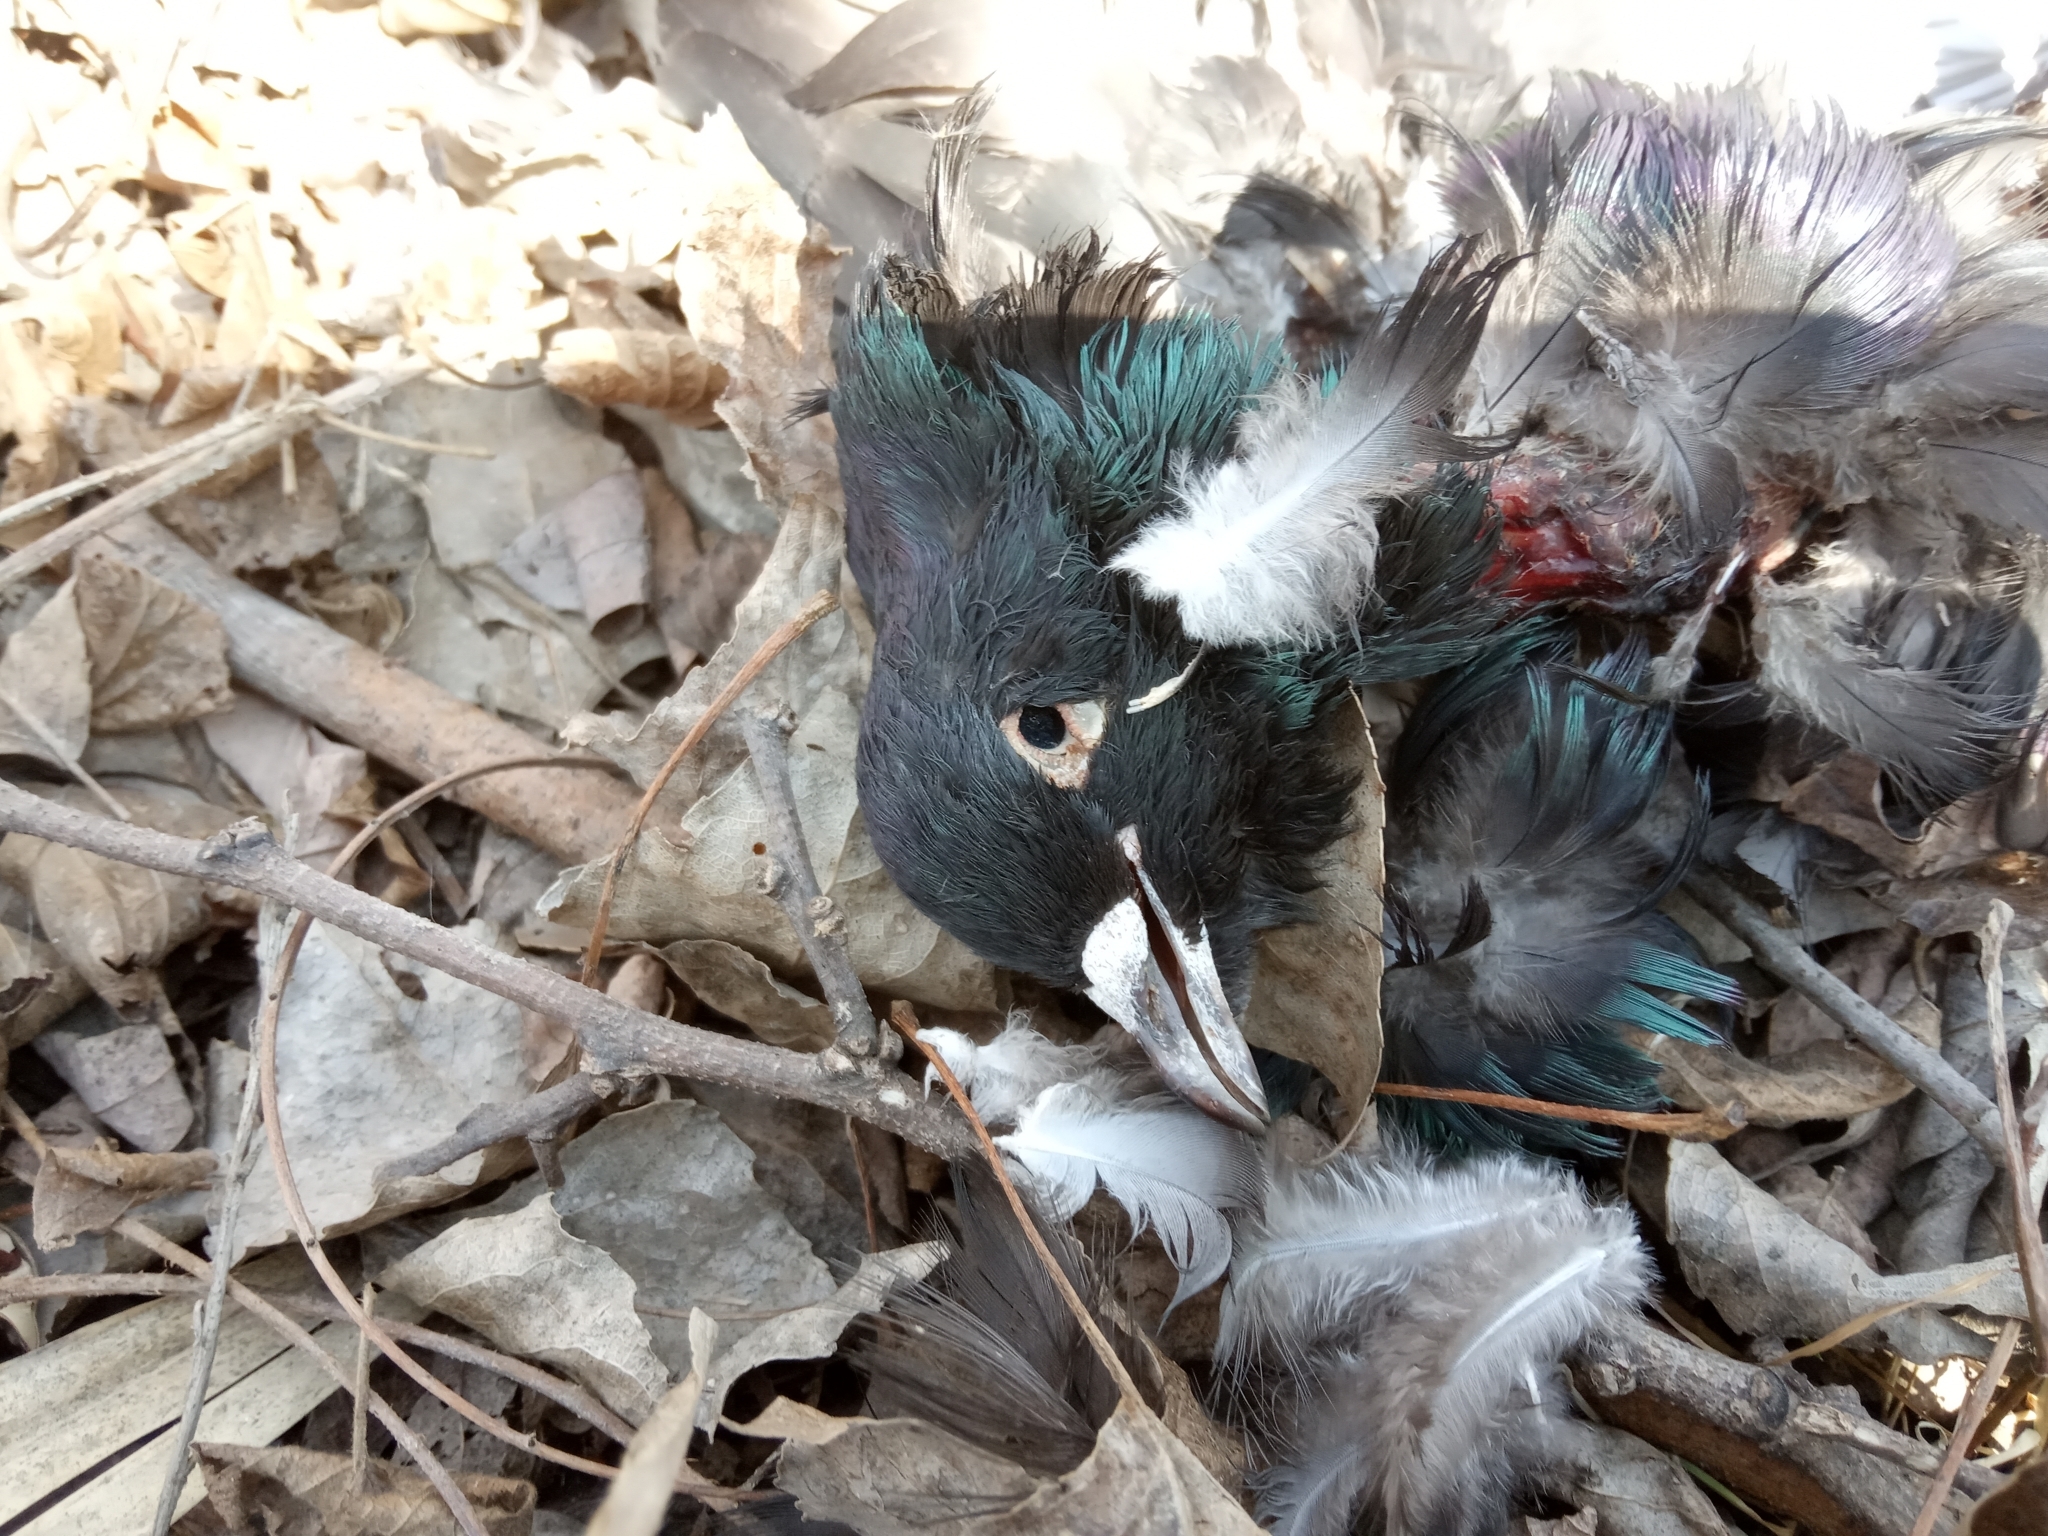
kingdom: Animalia
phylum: Chordata
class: Aves
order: Columbiformes
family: Columbidae
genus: Columba
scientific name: Columba livia
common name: Rock pigeon
